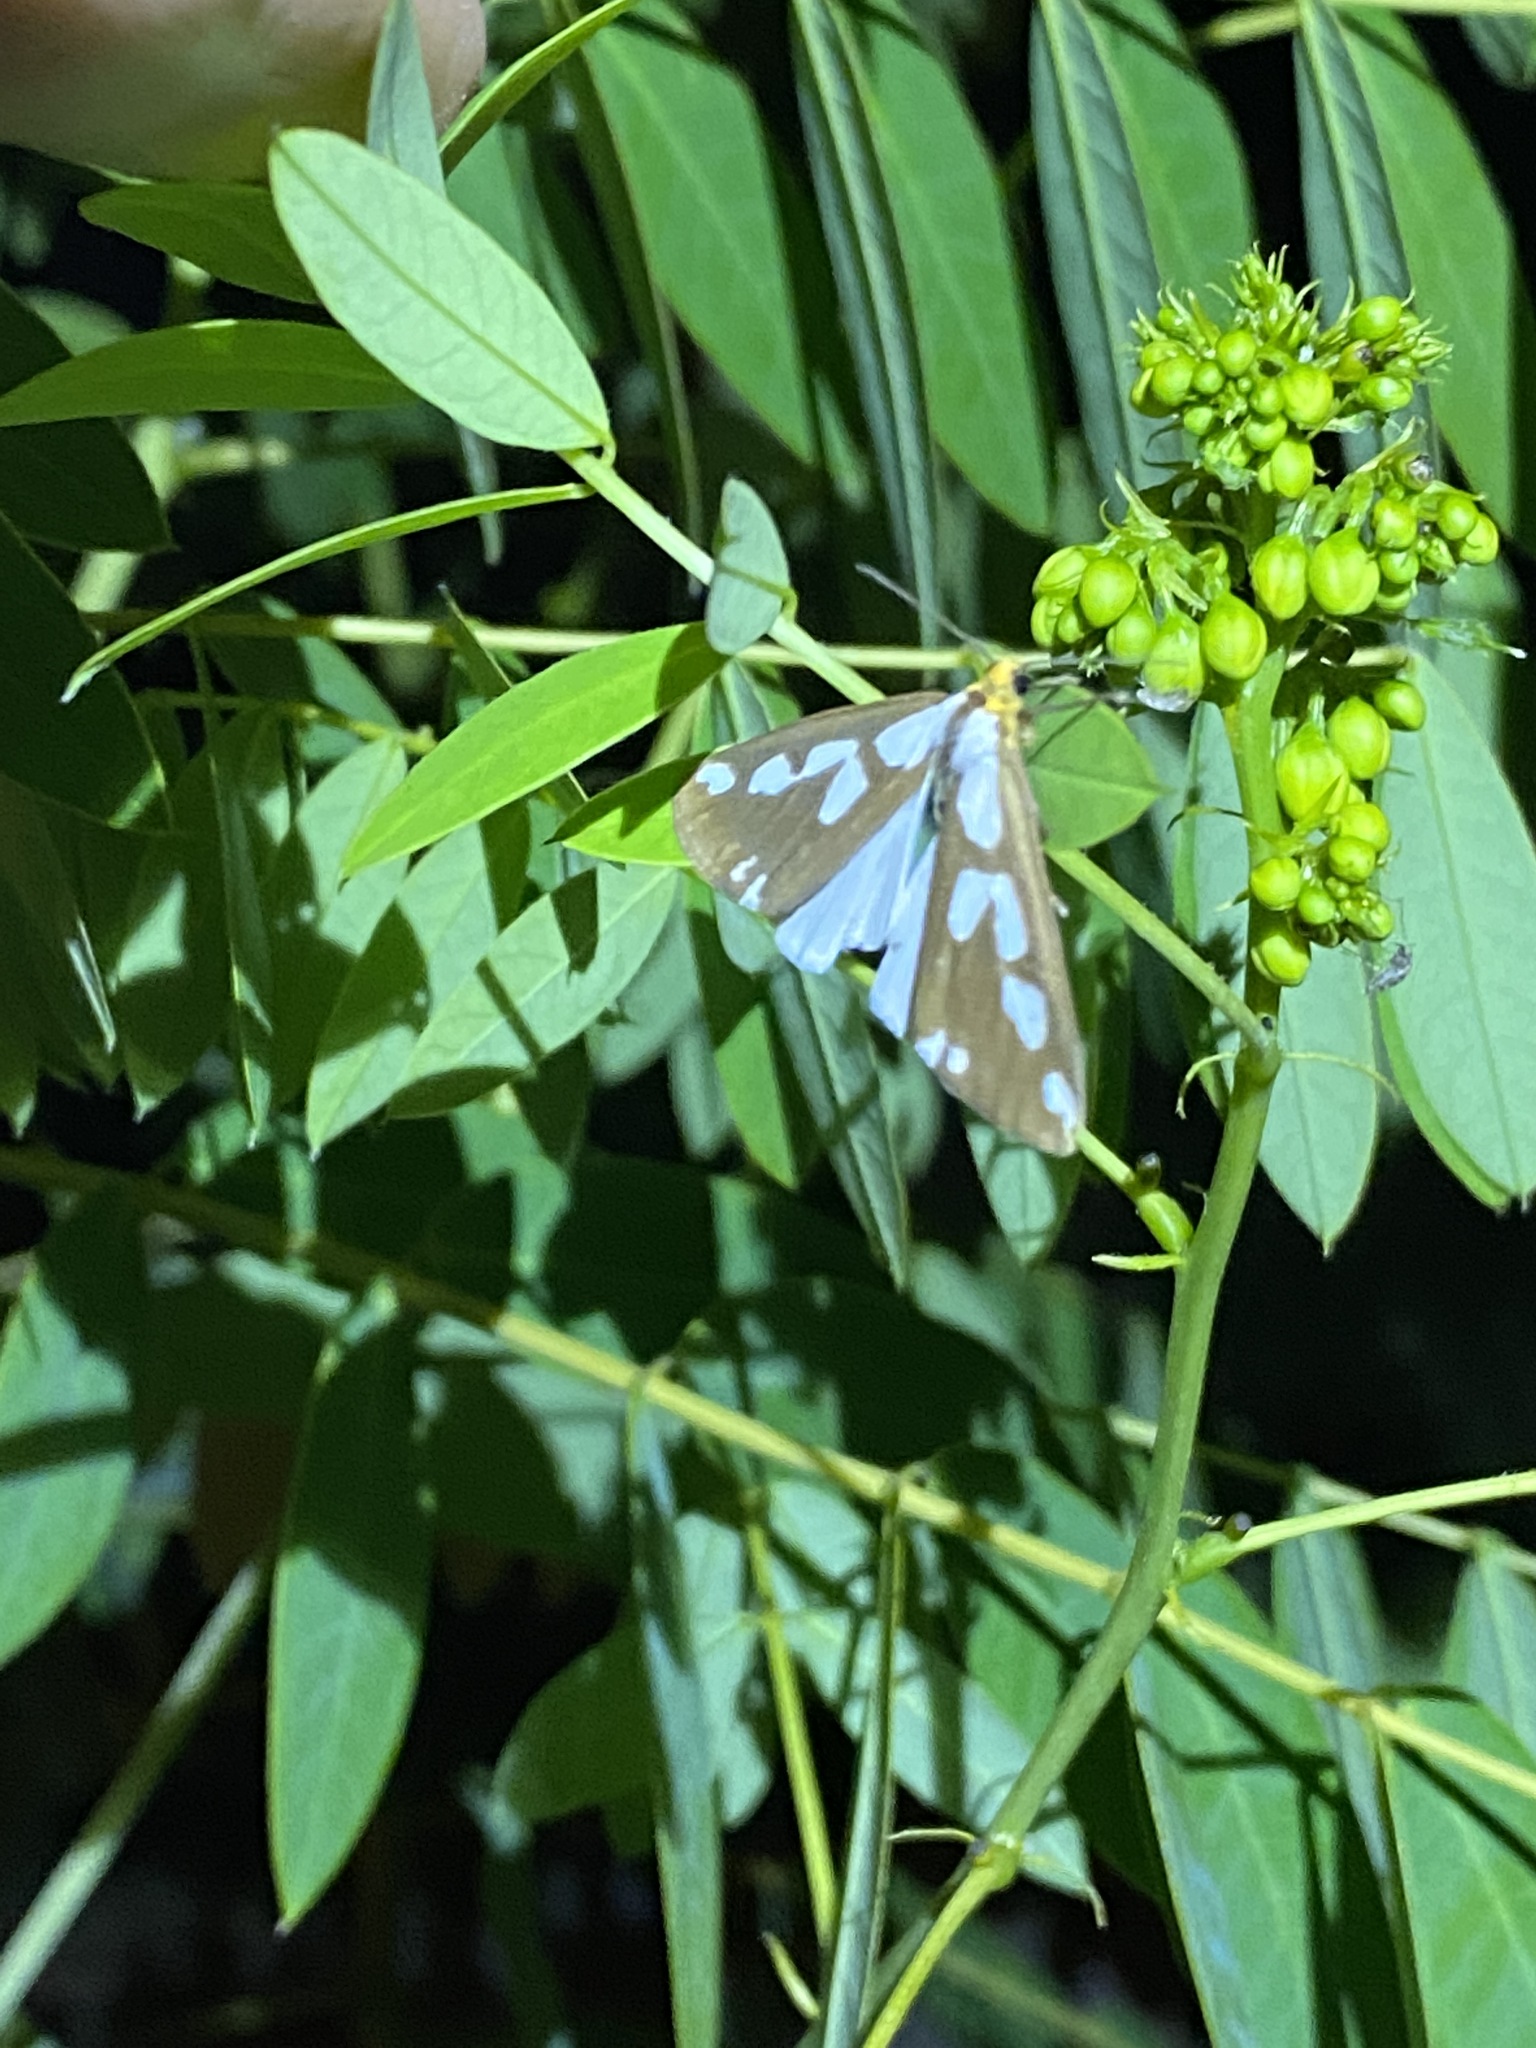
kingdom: Animalia
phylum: Arthropoda
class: Insecta
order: Lepidoptera
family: Erebidae
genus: Haploa
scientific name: Haploa confusa
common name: Confused haploa moth
